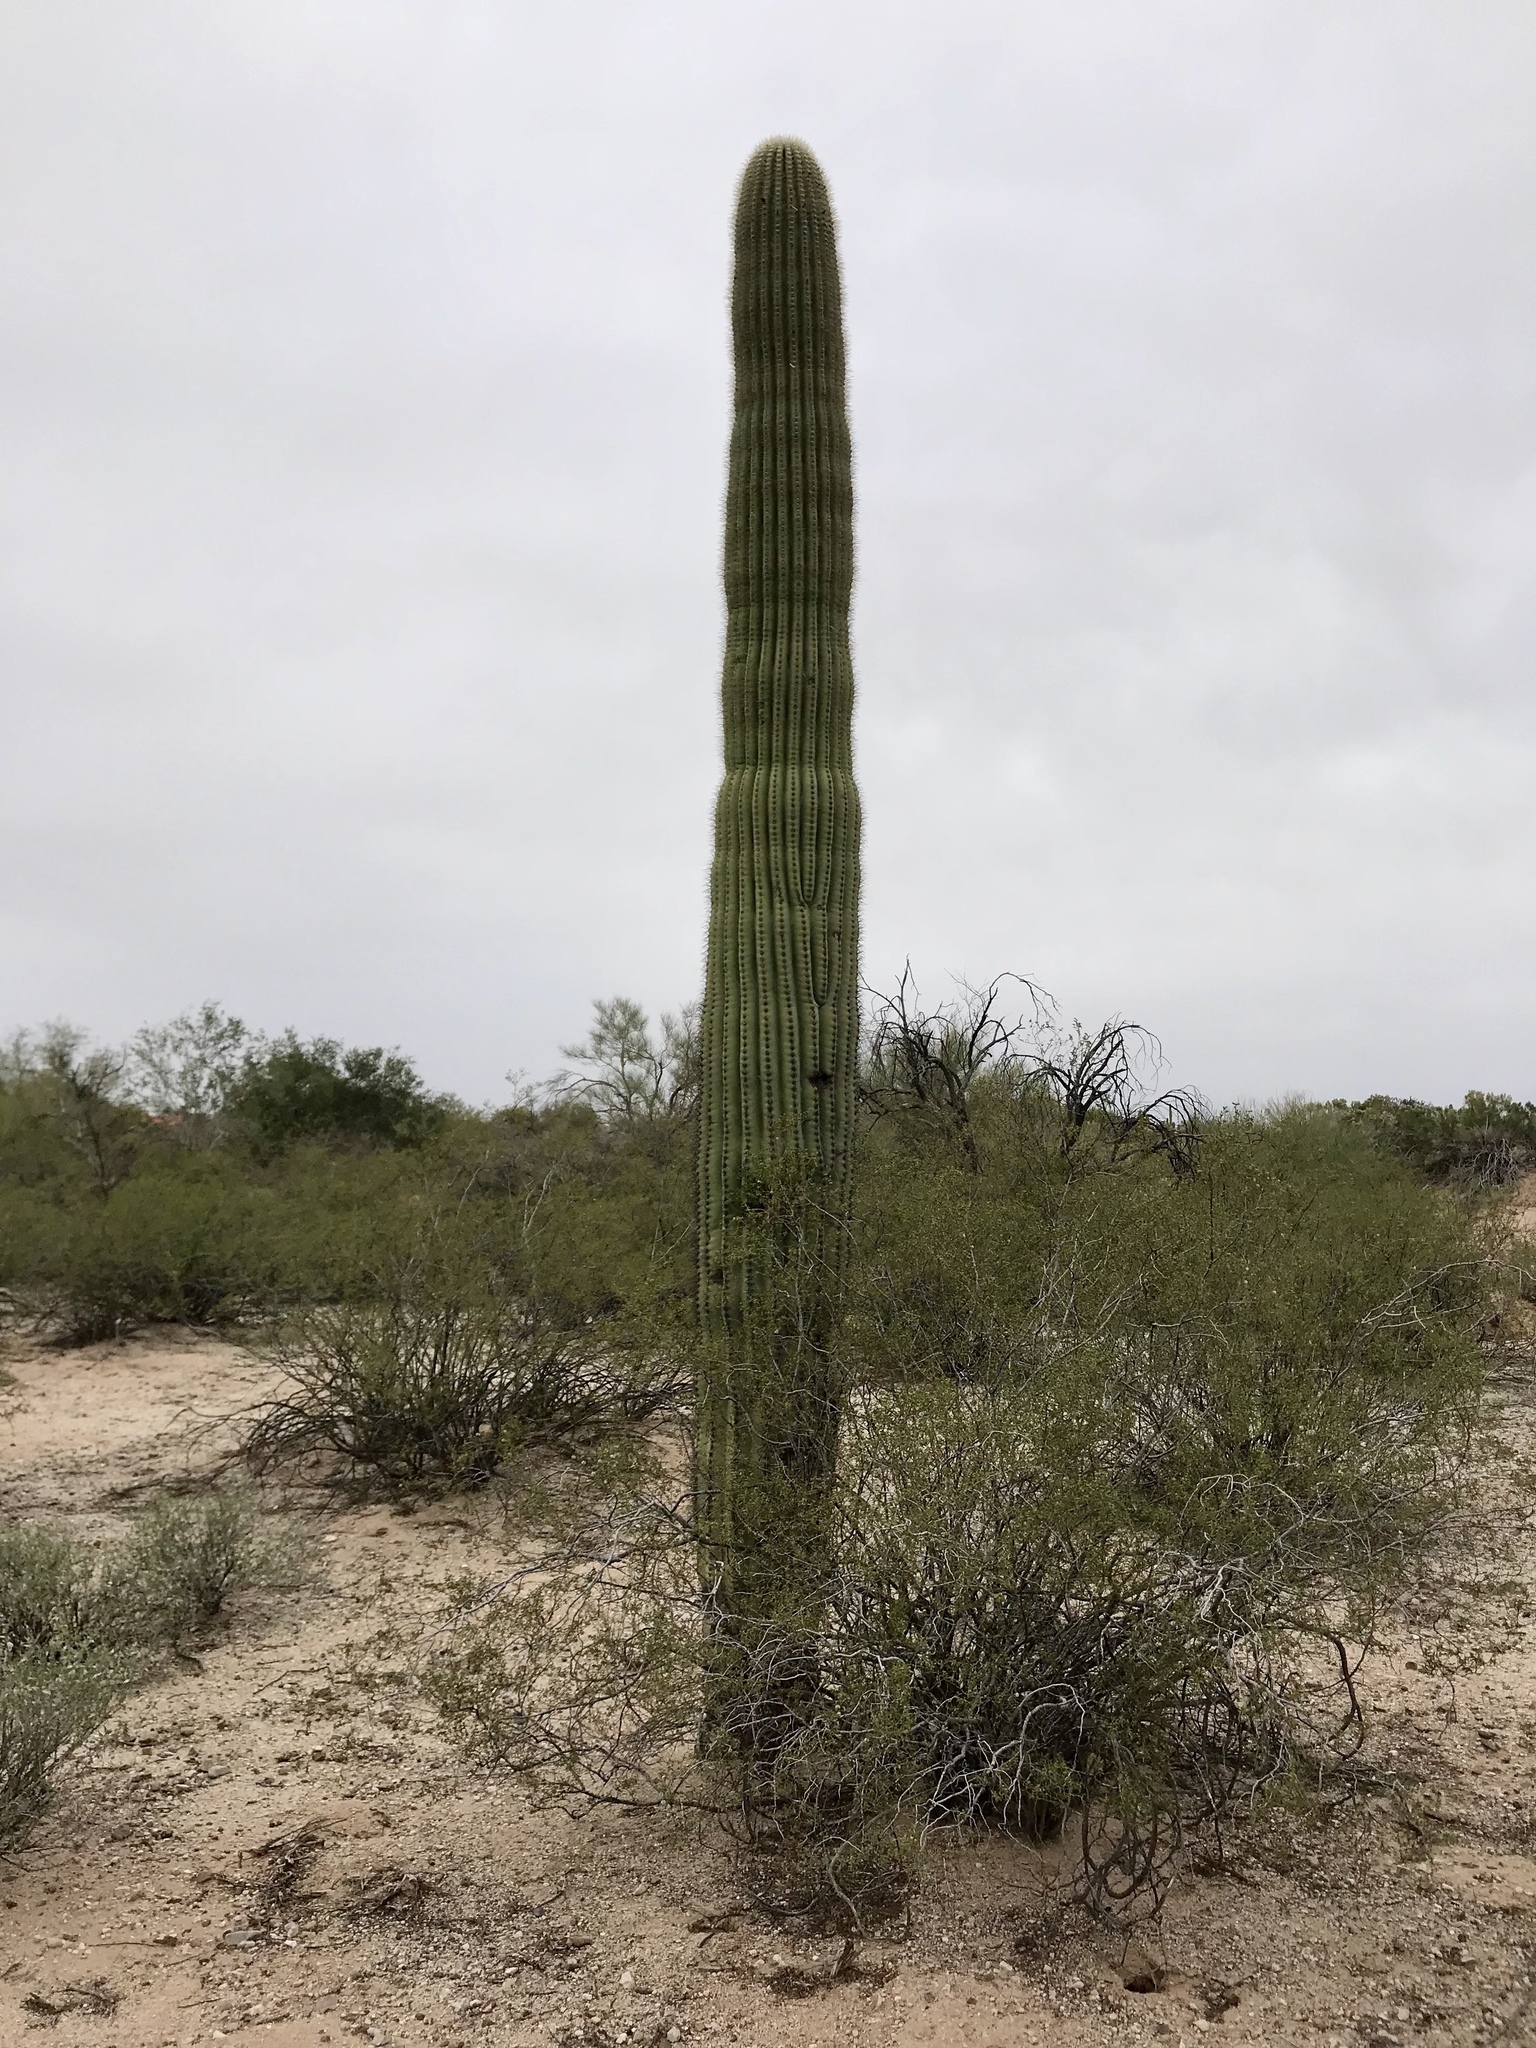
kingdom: Plantae
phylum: Tracheophyta
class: Magnoliopsida
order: Caryophyllales
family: Cactaceae
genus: Carnegiea
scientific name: Carnegiea gigantea
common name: Saguaro
